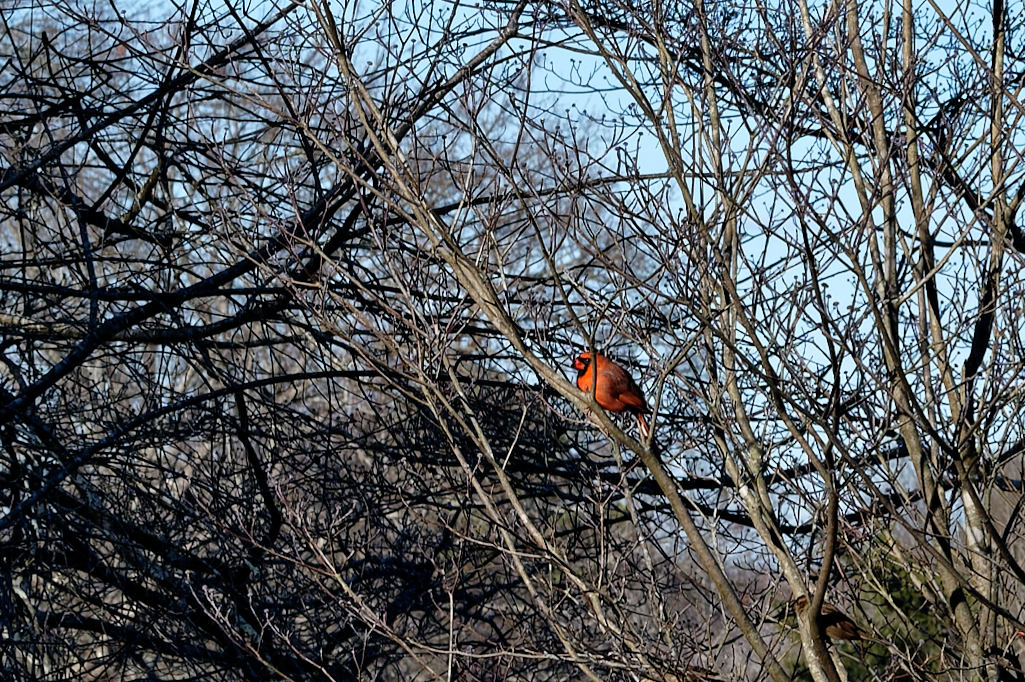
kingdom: Animalia
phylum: Chordata
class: Aves
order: Passeriformes
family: Cardinalidae
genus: Cardinalis
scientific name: Cardinalis cardinalis
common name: Northern cardinal
